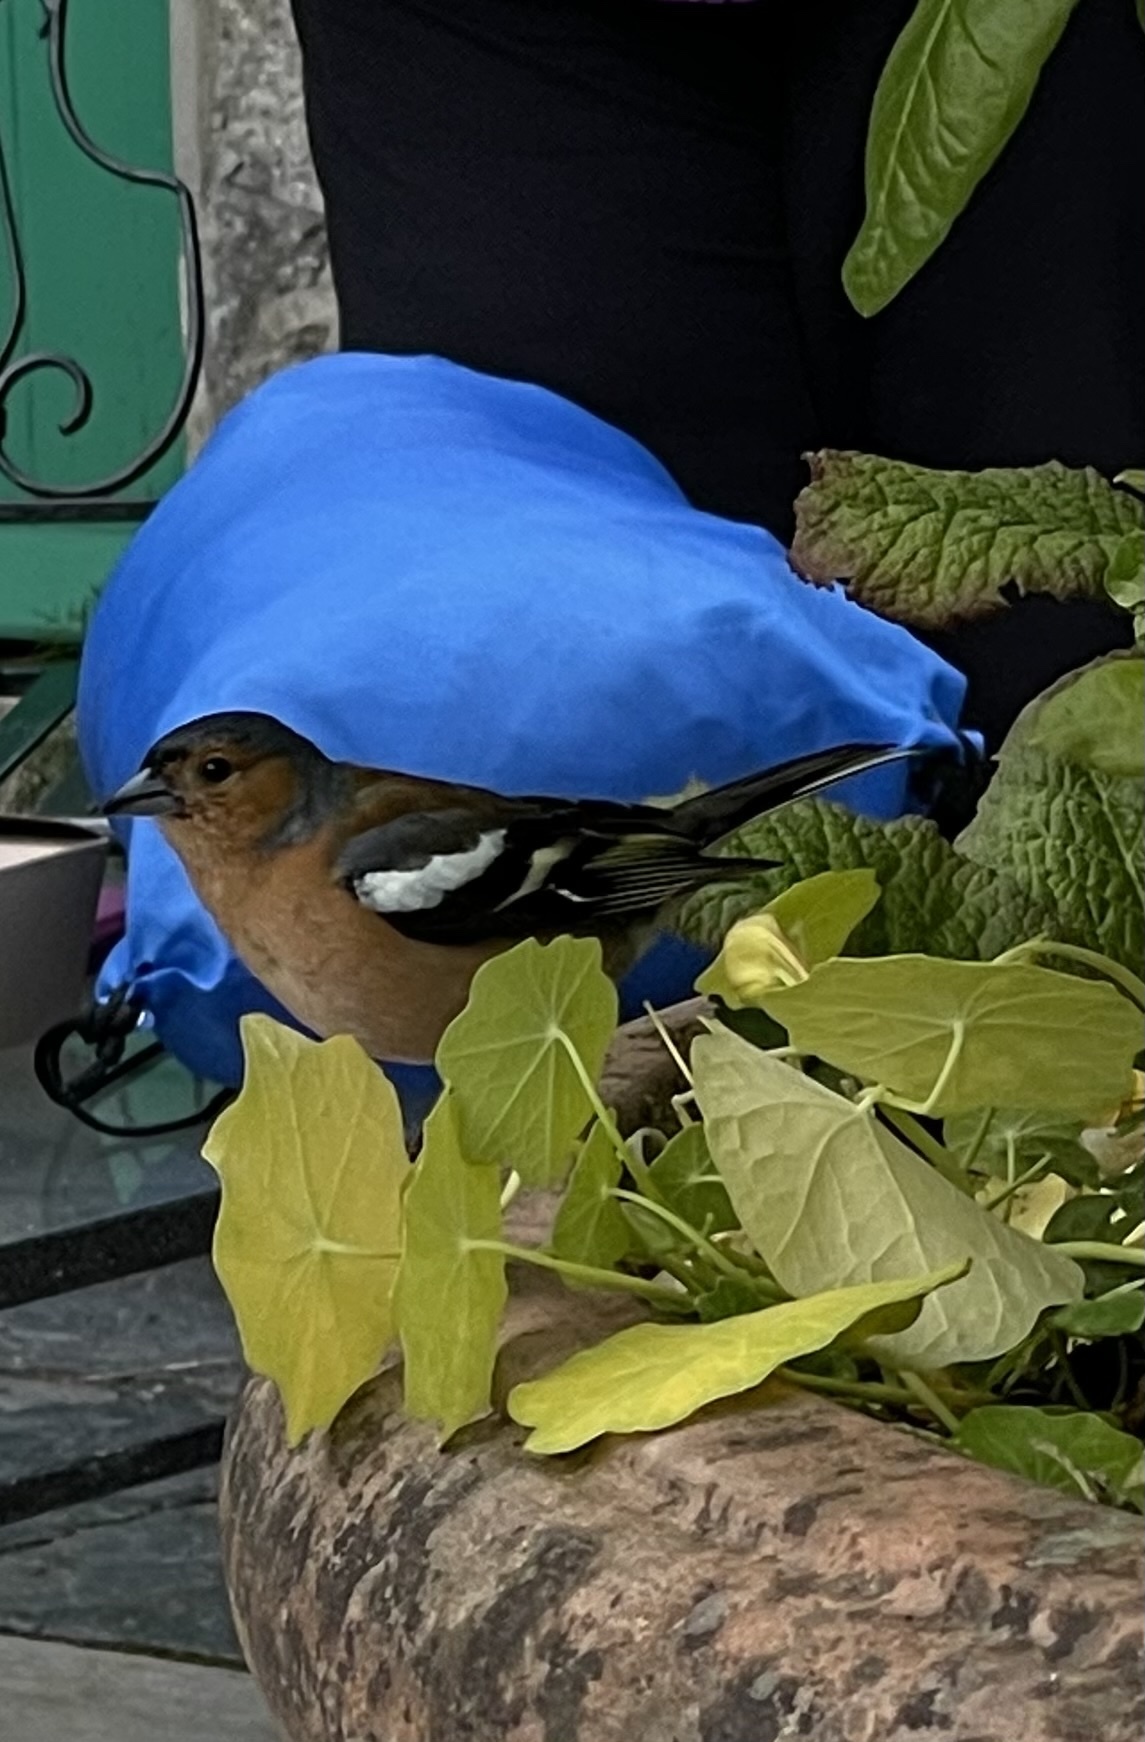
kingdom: Animalia
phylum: Chordata
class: Aves
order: Passeriformes
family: Fringillidae
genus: Fringilla
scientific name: Fringilla coelebs
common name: Common chaffinch
